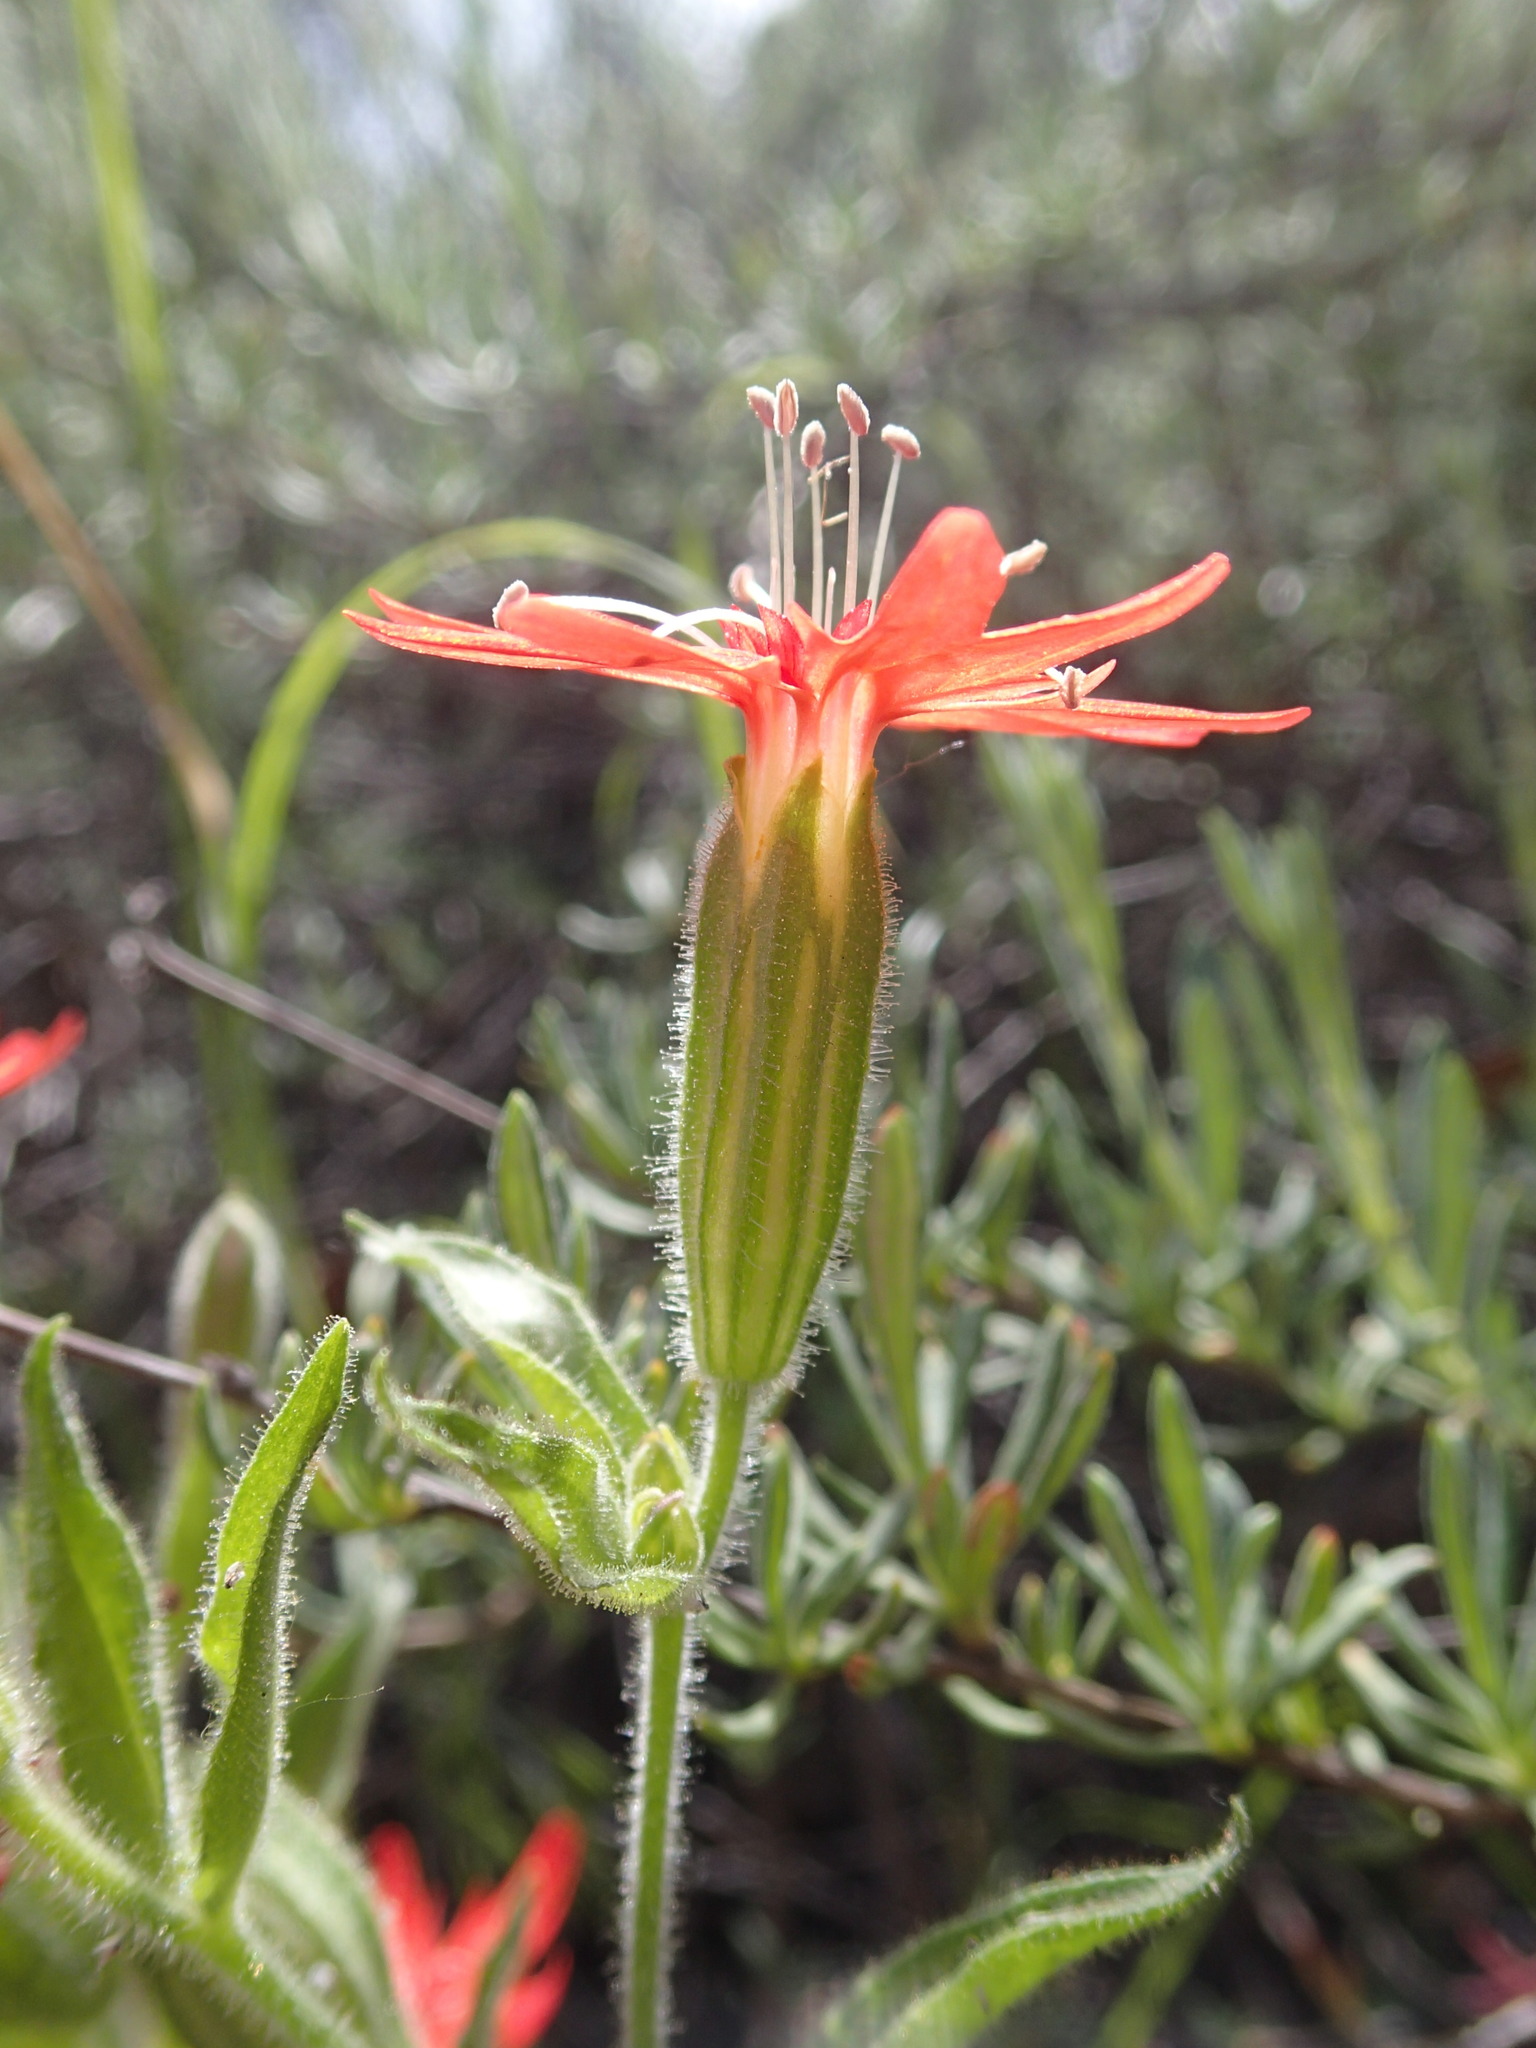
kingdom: Plantae
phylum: Tracheophyta
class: Magnoliopsida
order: Caryophyllales
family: Caryophyllaceae
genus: Silene
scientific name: Silene laciniata
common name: Indian-pink
